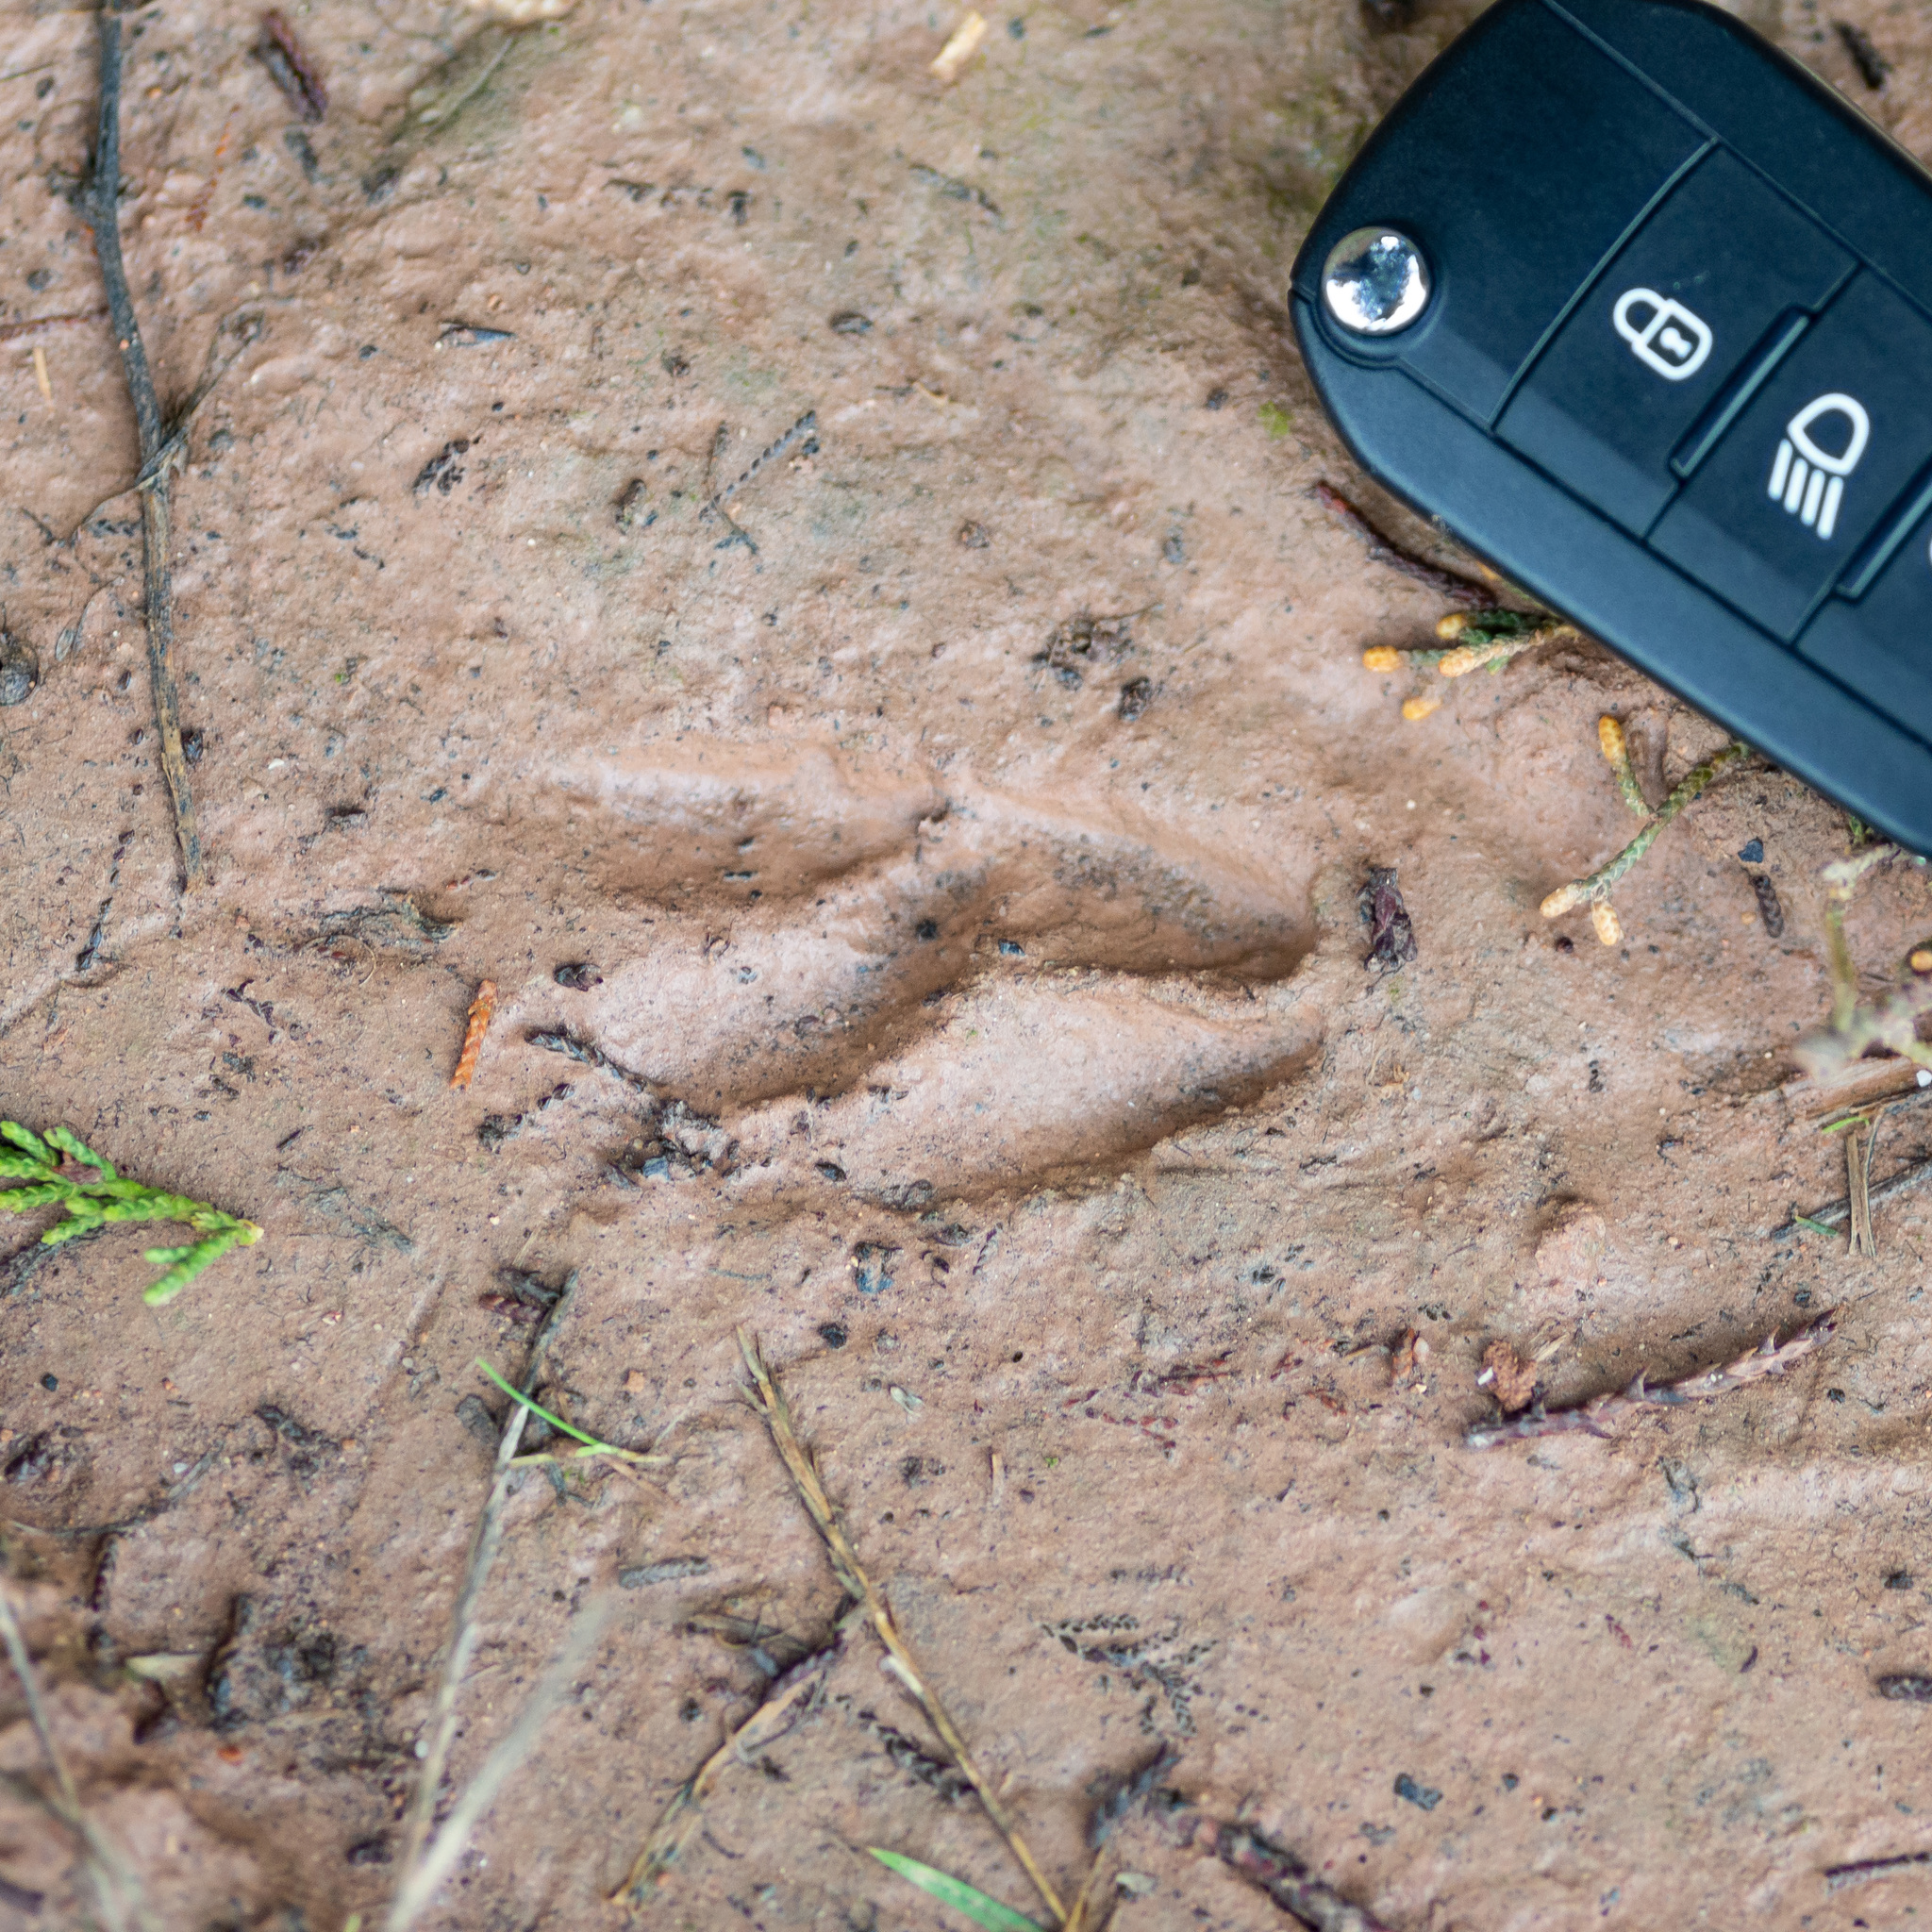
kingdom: Animalia
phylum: Chordata
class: Mammalia
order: Artiodactyla
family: Cervidae
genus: Capreolus
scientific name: Capreolus capreolus
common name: Western roe deer
